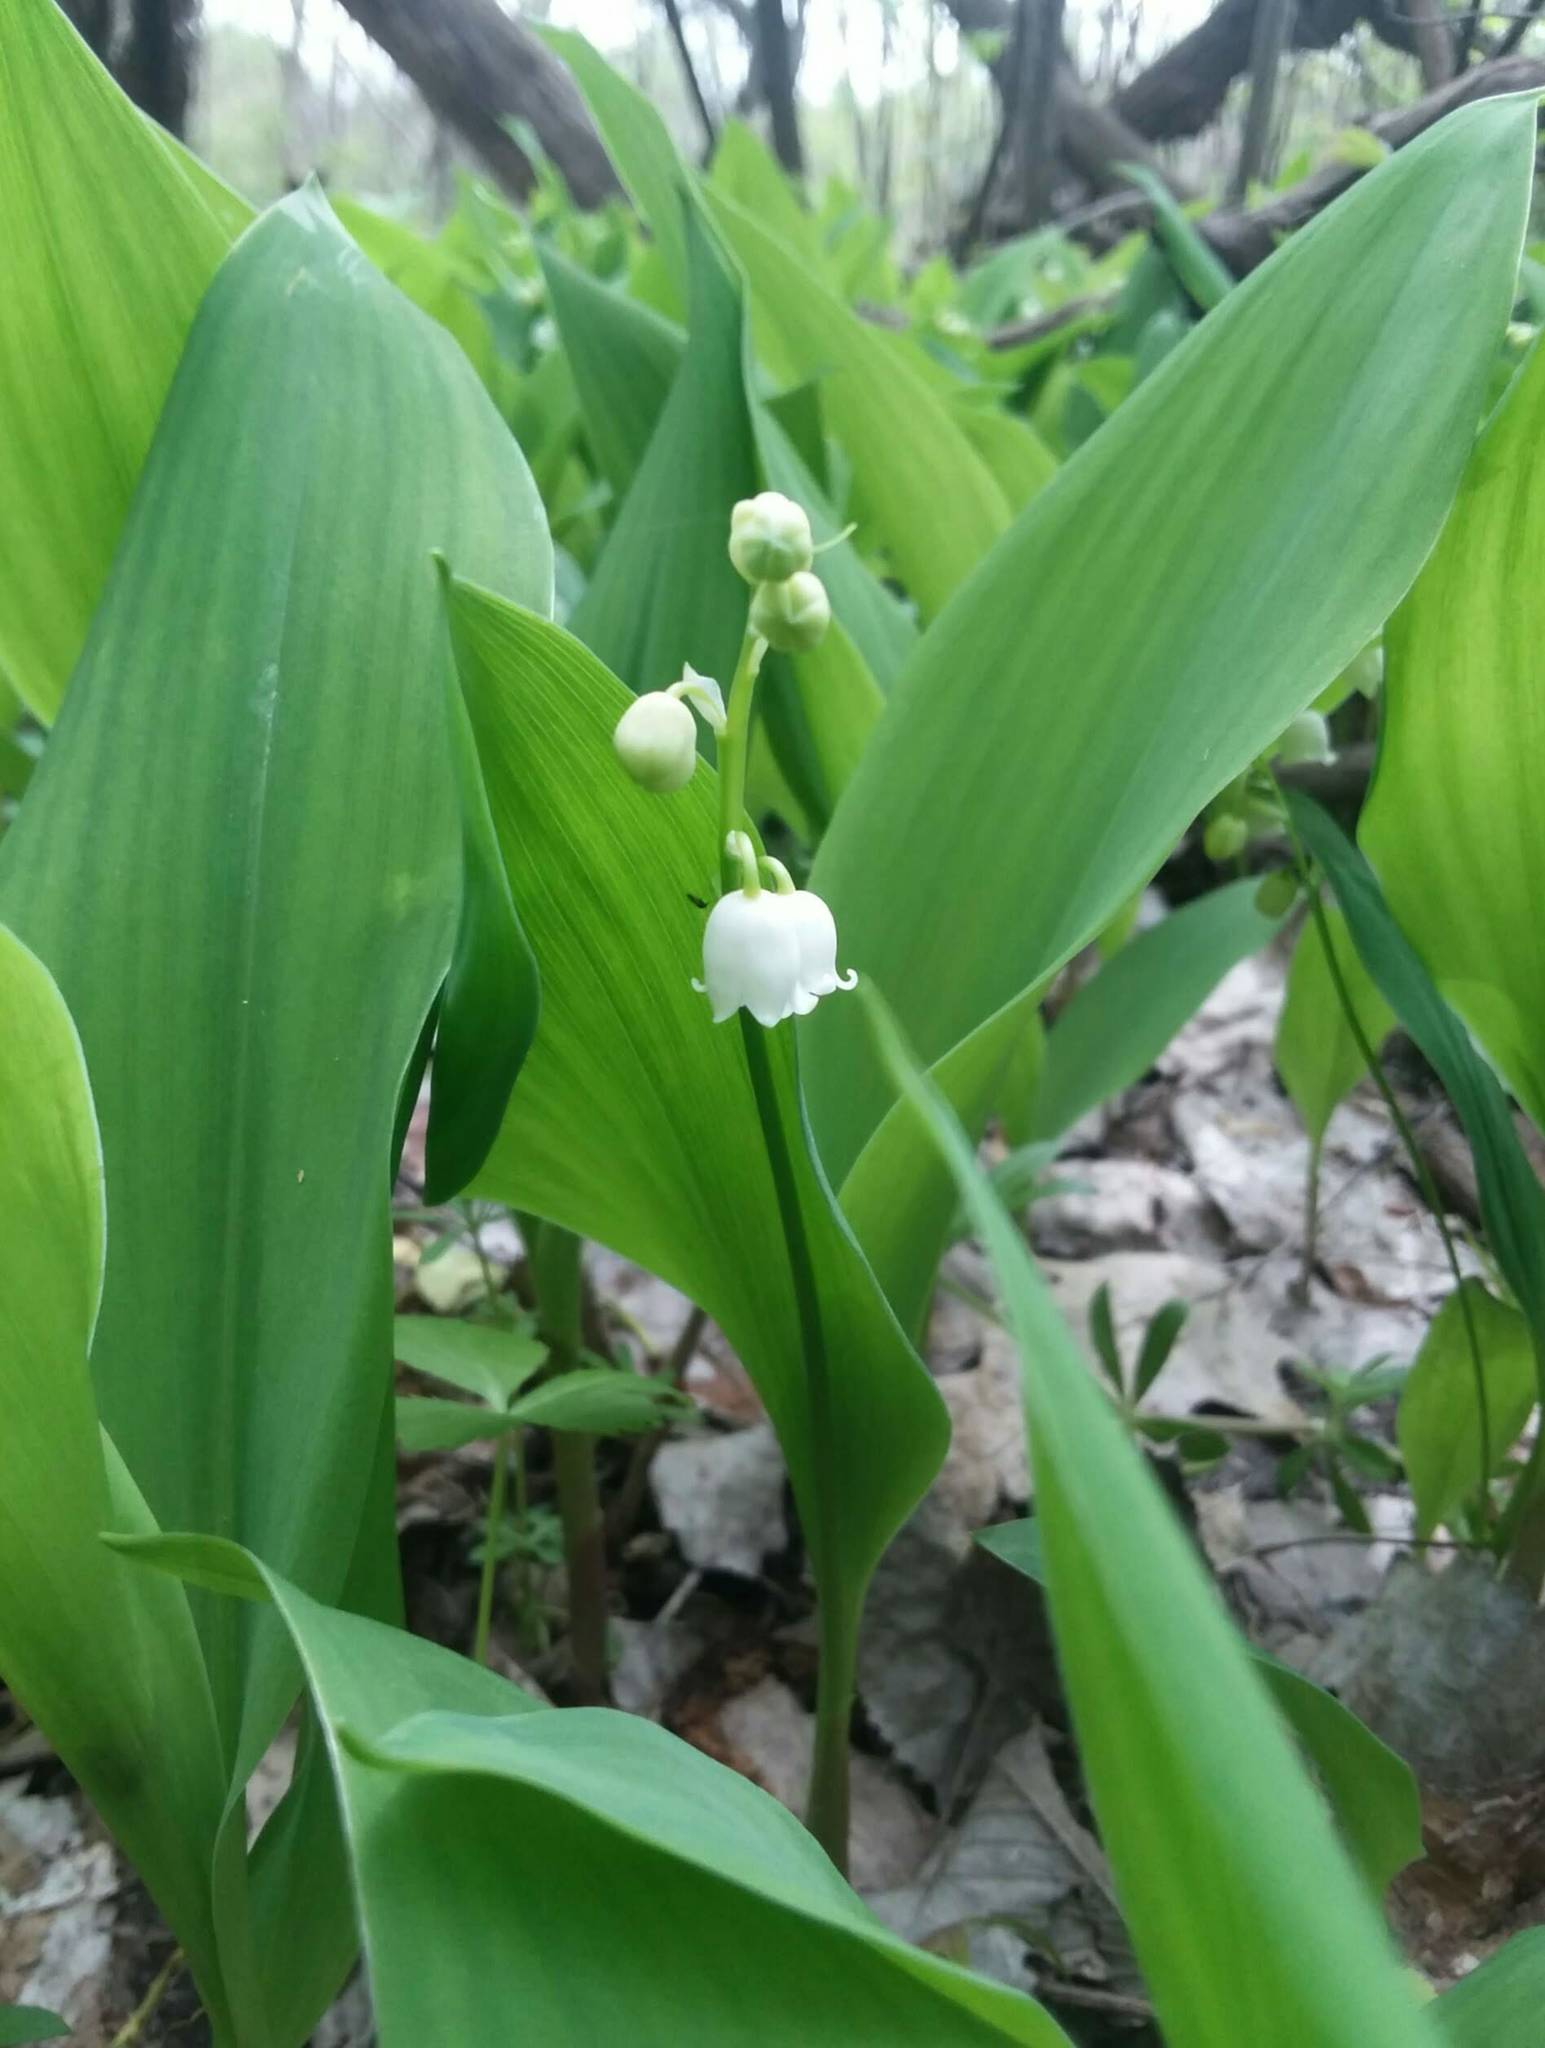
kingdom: Plantae
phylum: Tracheophyta
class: Liliopsida
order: Asparagales
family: Asparagaceae
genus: Convallaria
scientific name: Convallaria majalis
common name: Lily-of-the-valley
